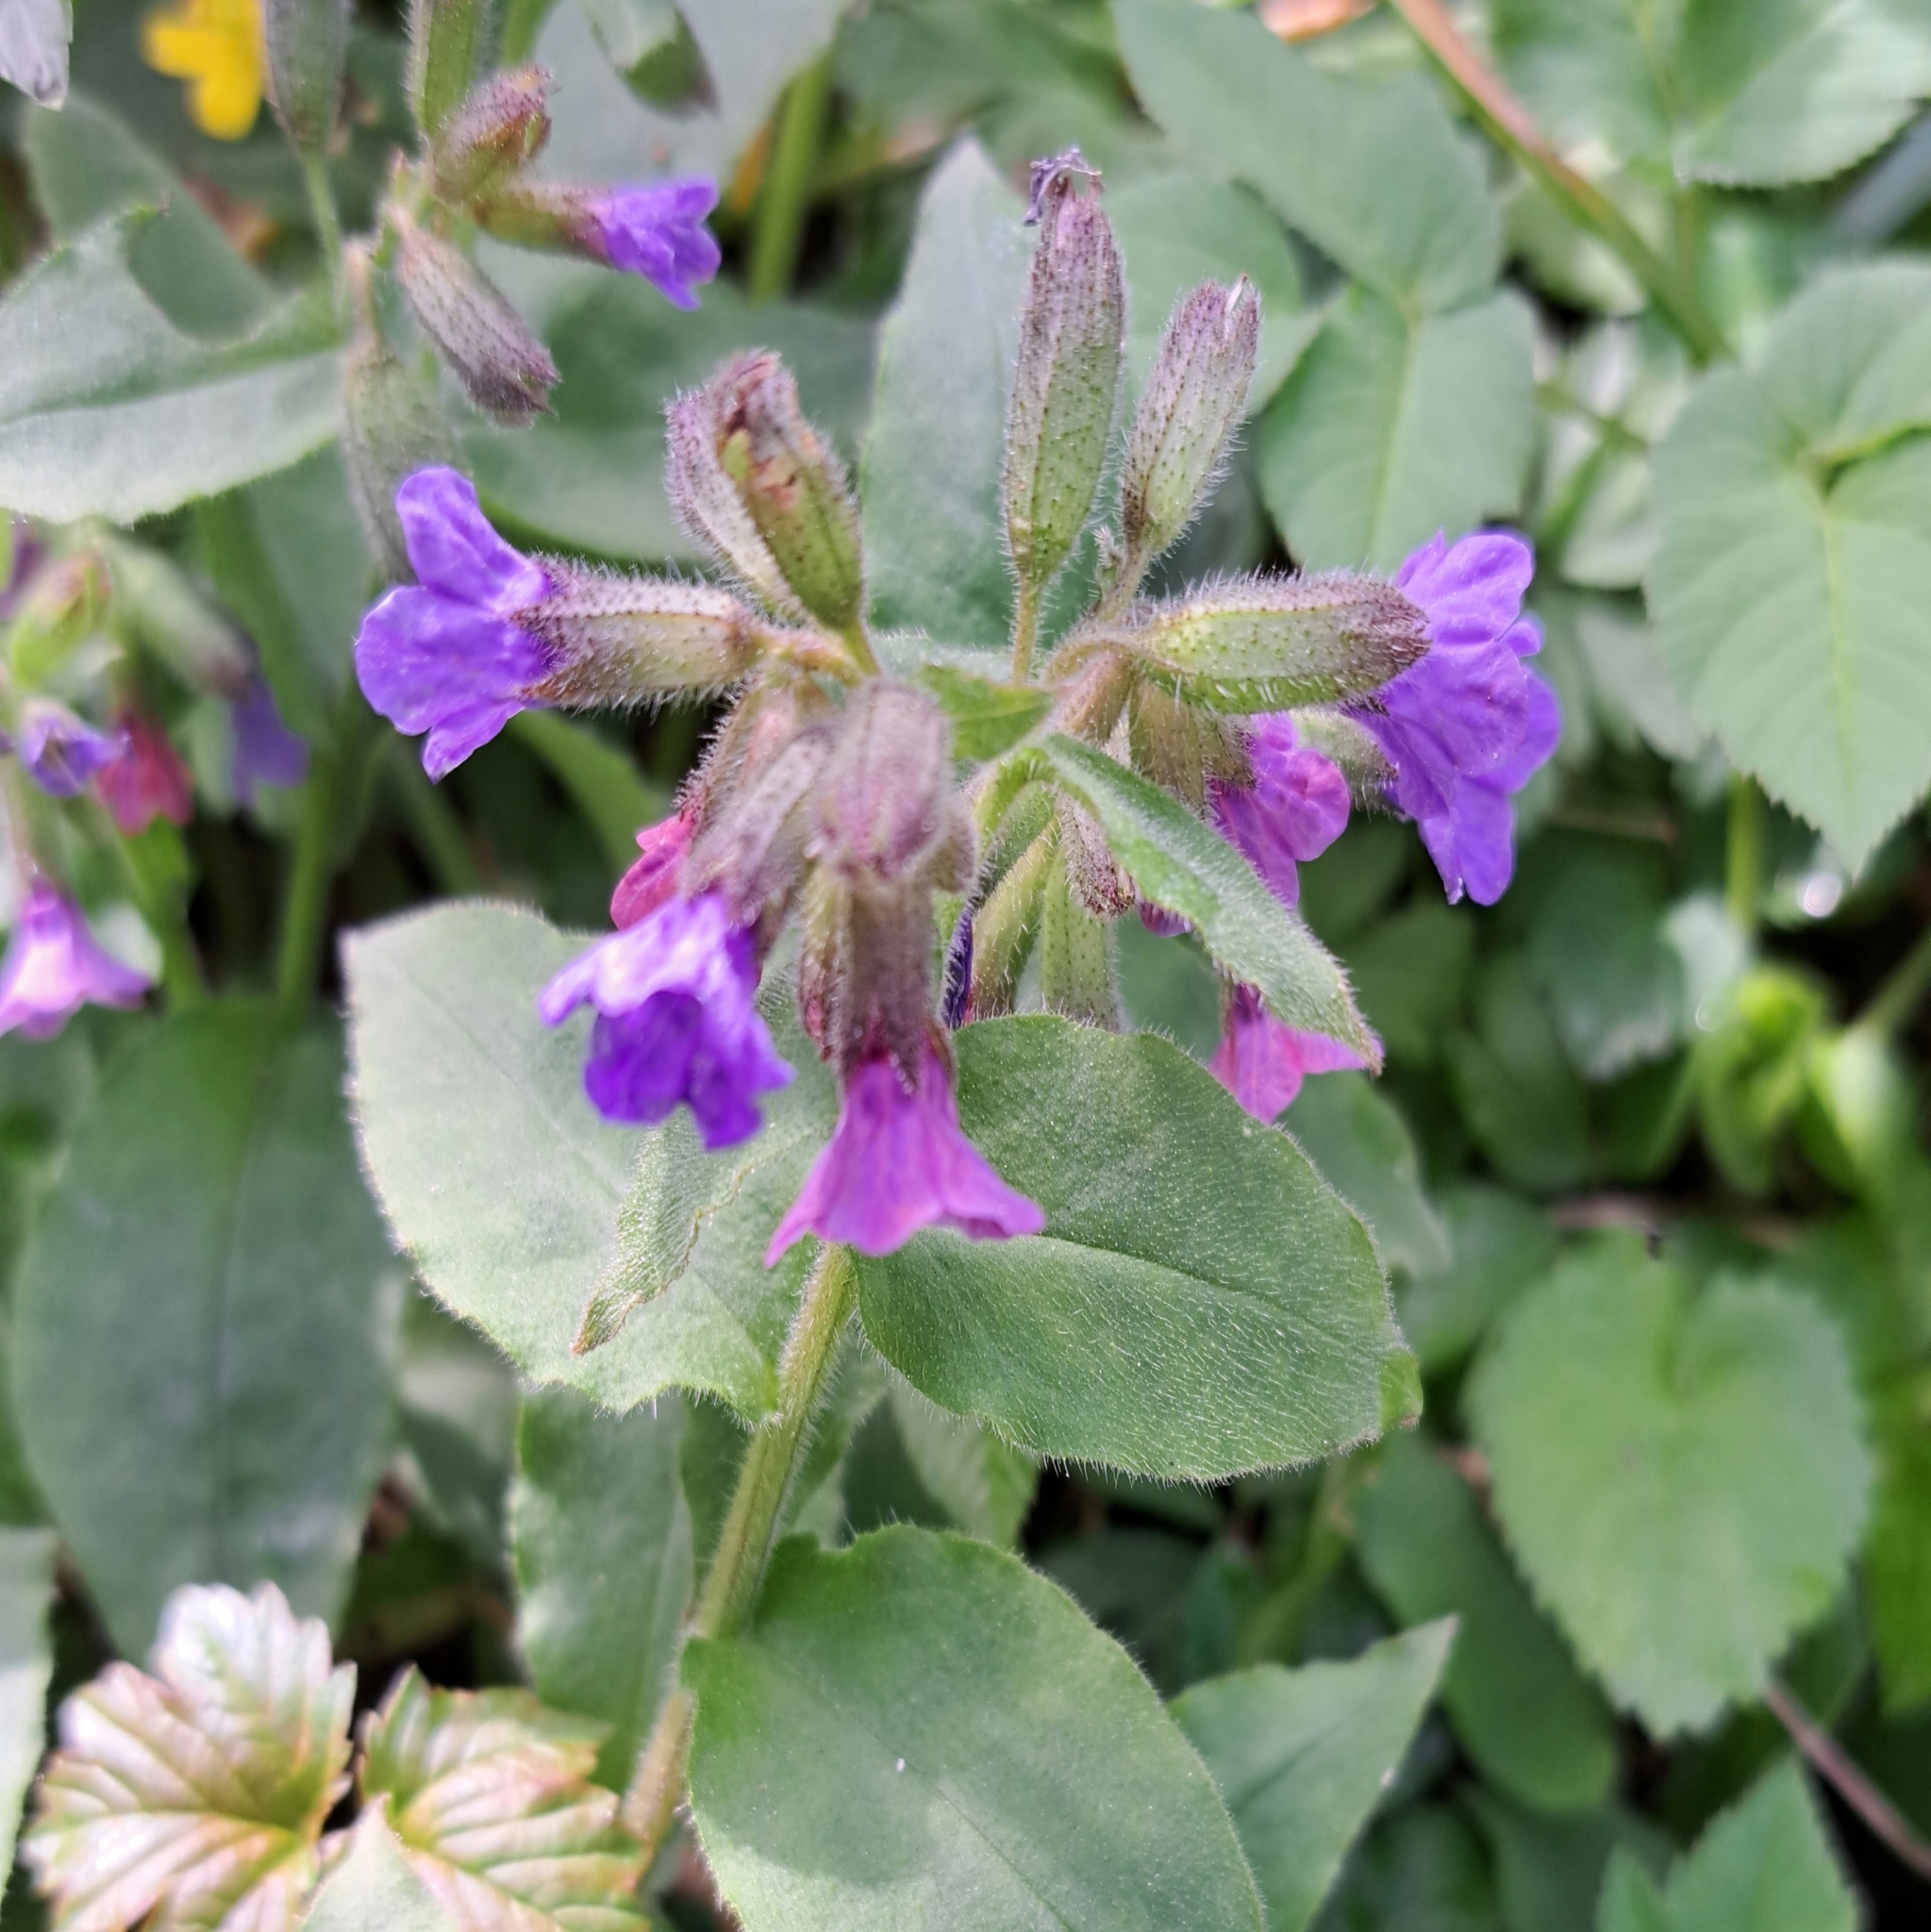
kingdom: Plantae
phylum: Tracheophyta
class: Magnoliopsida
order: Boraginales
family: Boraginaceae
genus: Pulmonaria
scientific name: Pulmonaria obscura
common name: Suffolk lungwort
